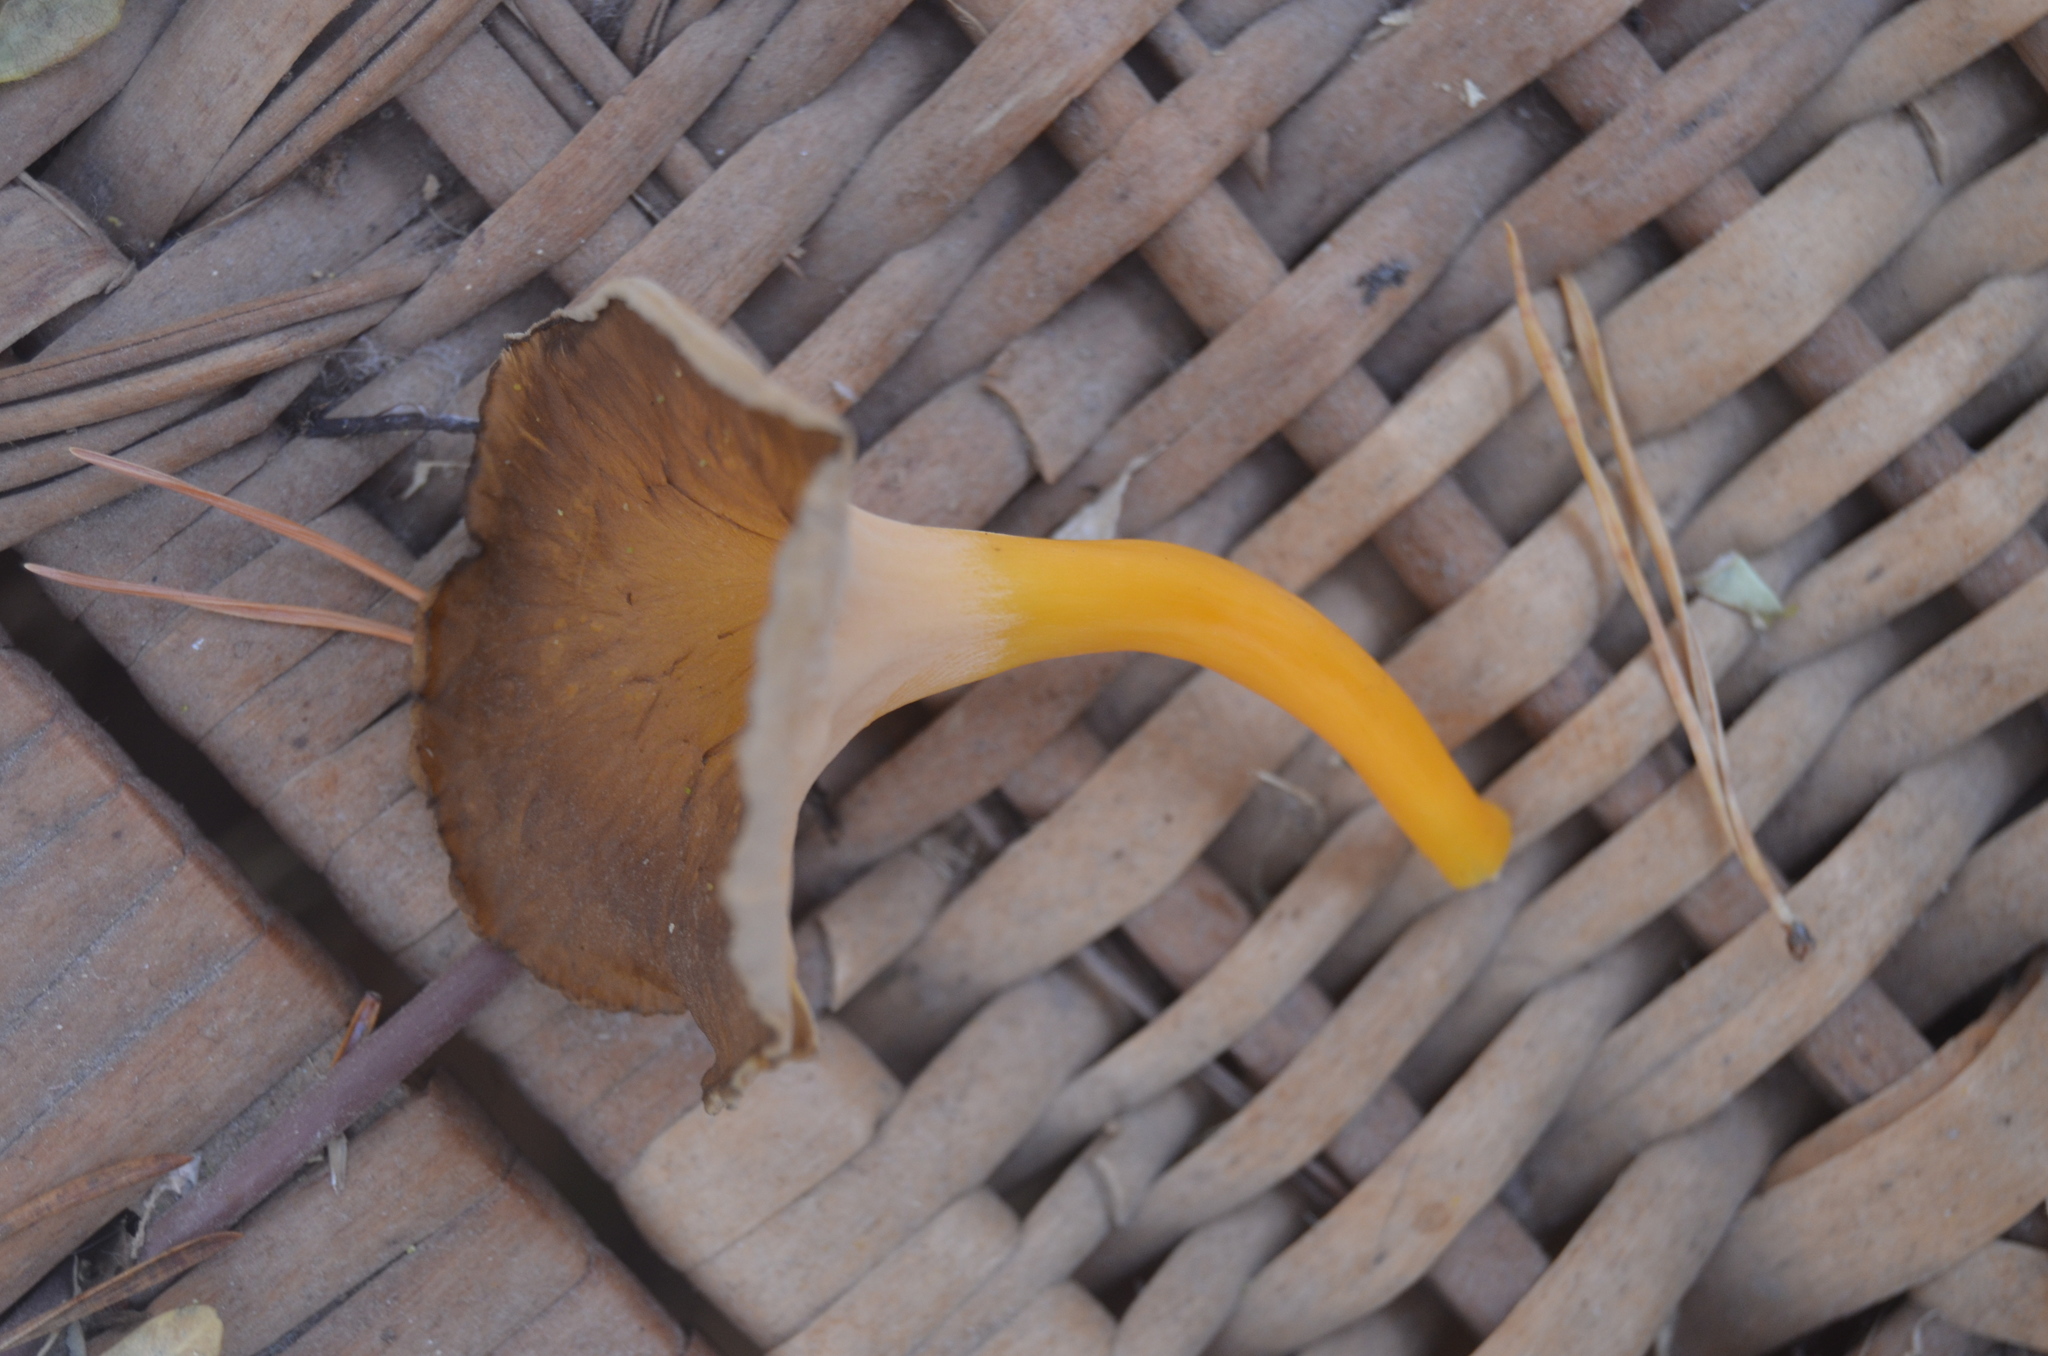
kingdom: Fungi
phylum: Basidiomycota
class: Agaricomycetes
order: Cantharellales
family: Hydnaceae
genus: Craterellus
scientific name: Craterellus lutescens
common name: Golden chanterelle
